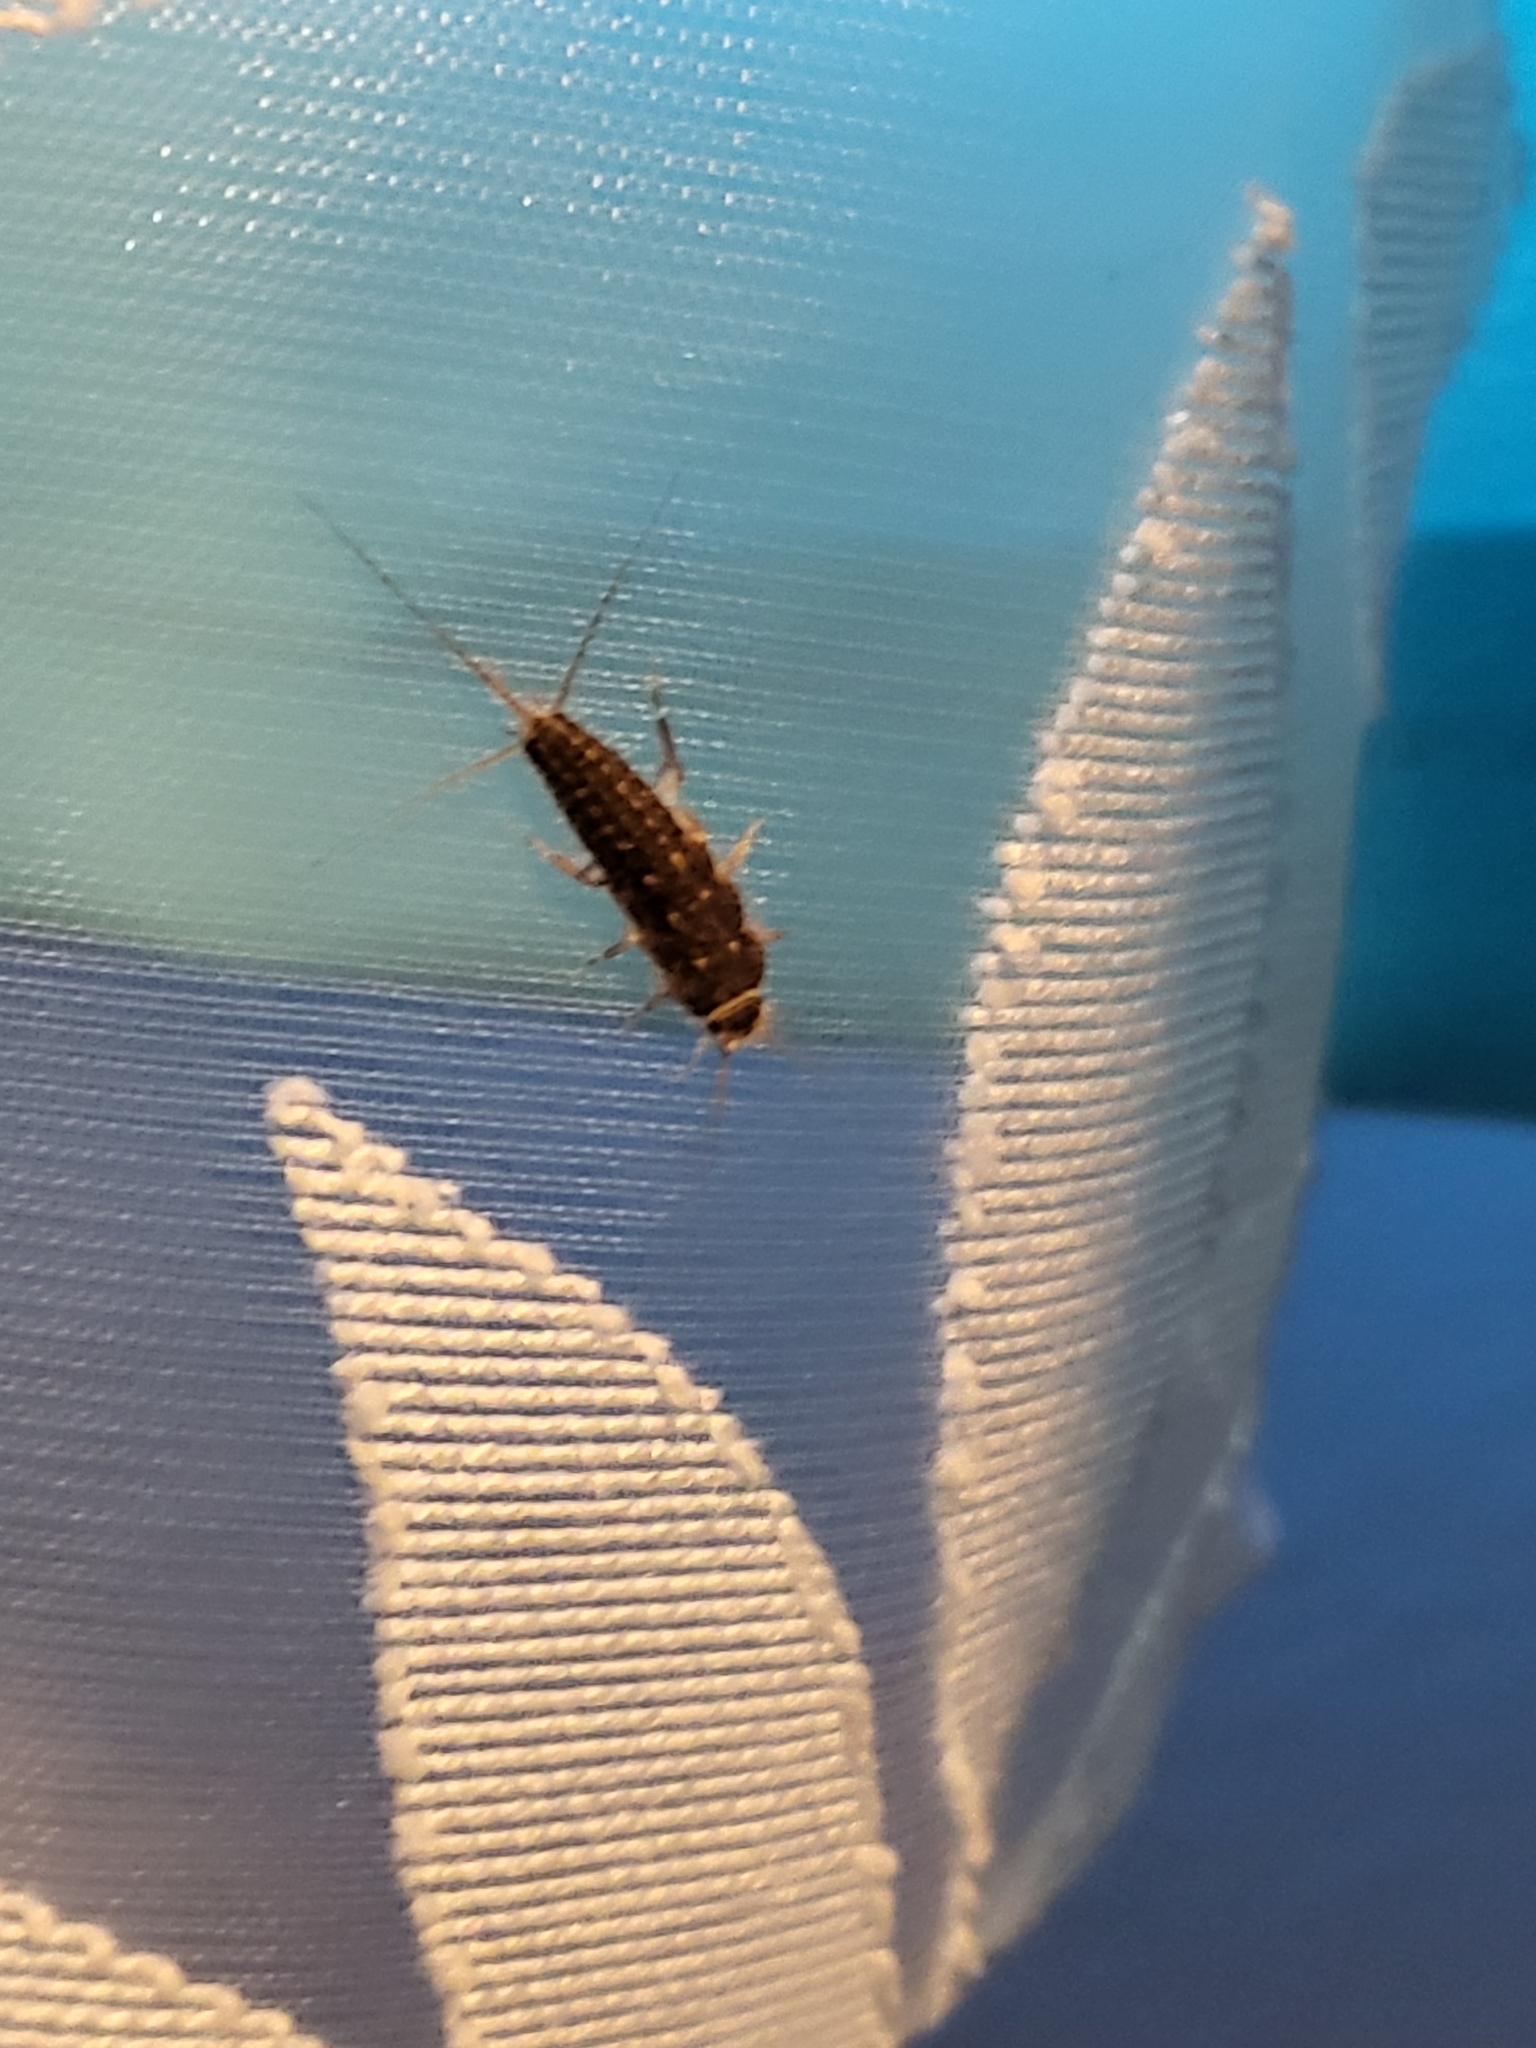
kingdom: Animalia
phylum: Arthropoda
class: Insecta
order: Zygentoma
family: Lepismatidae
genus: Ctenolepisma
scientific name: Ctenolepisma lineata
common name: Four-lined silverfish
